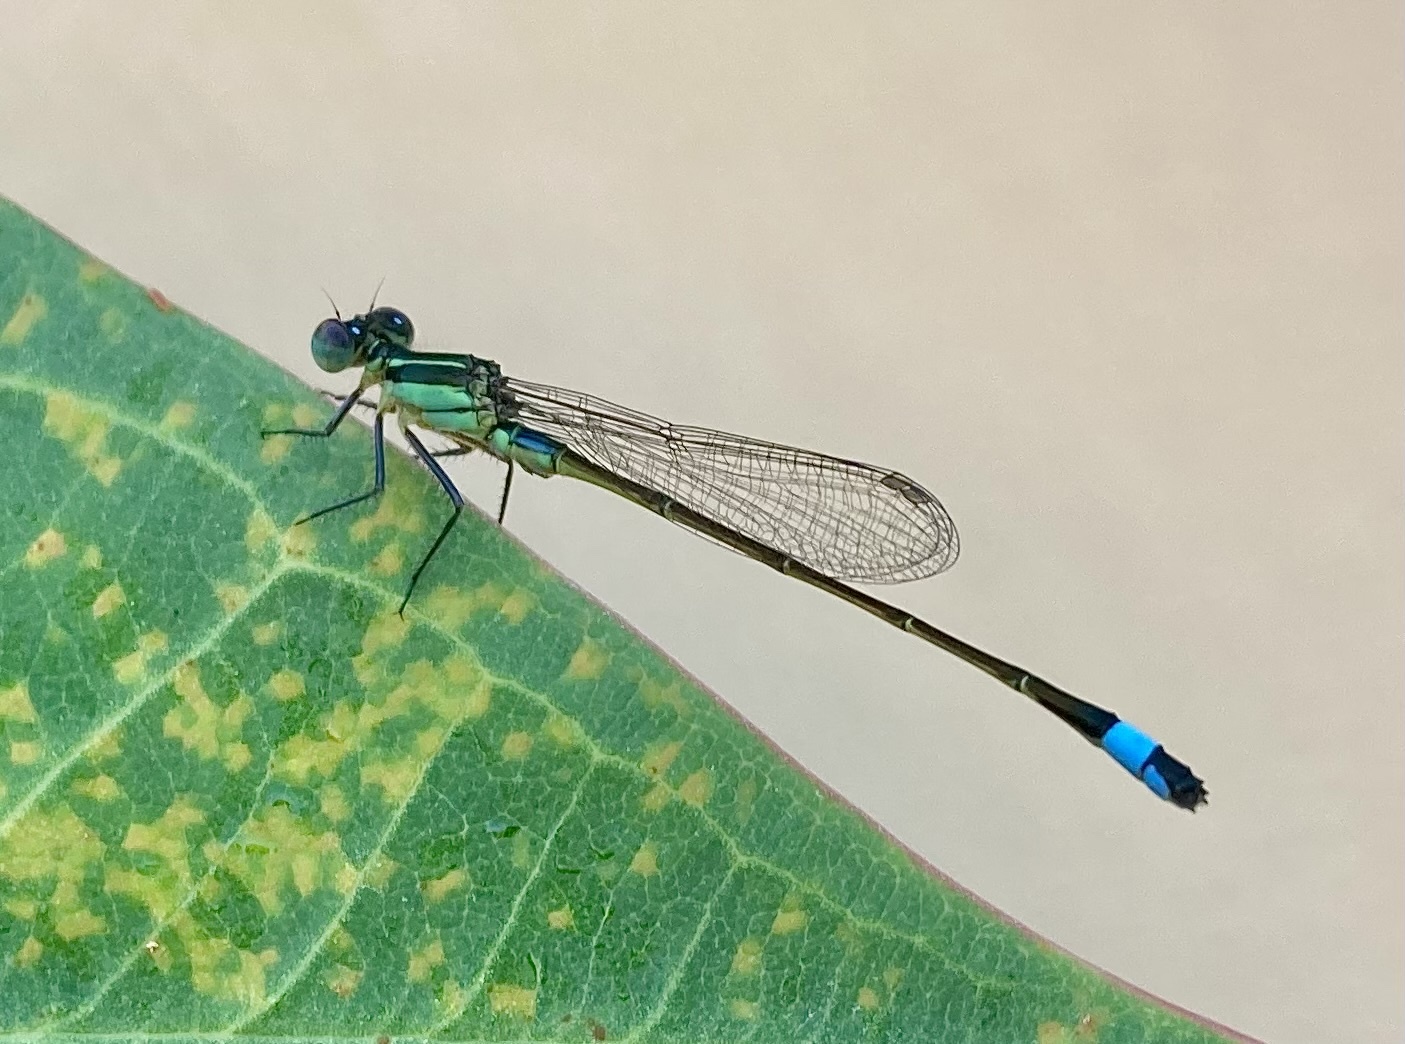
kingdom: Animalia
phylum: Arthropoda
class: Insecta
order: Odonata
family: Coenagrionidae
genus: Ischnura
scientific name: Ischnura ramburii
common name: Rambur's forktail
